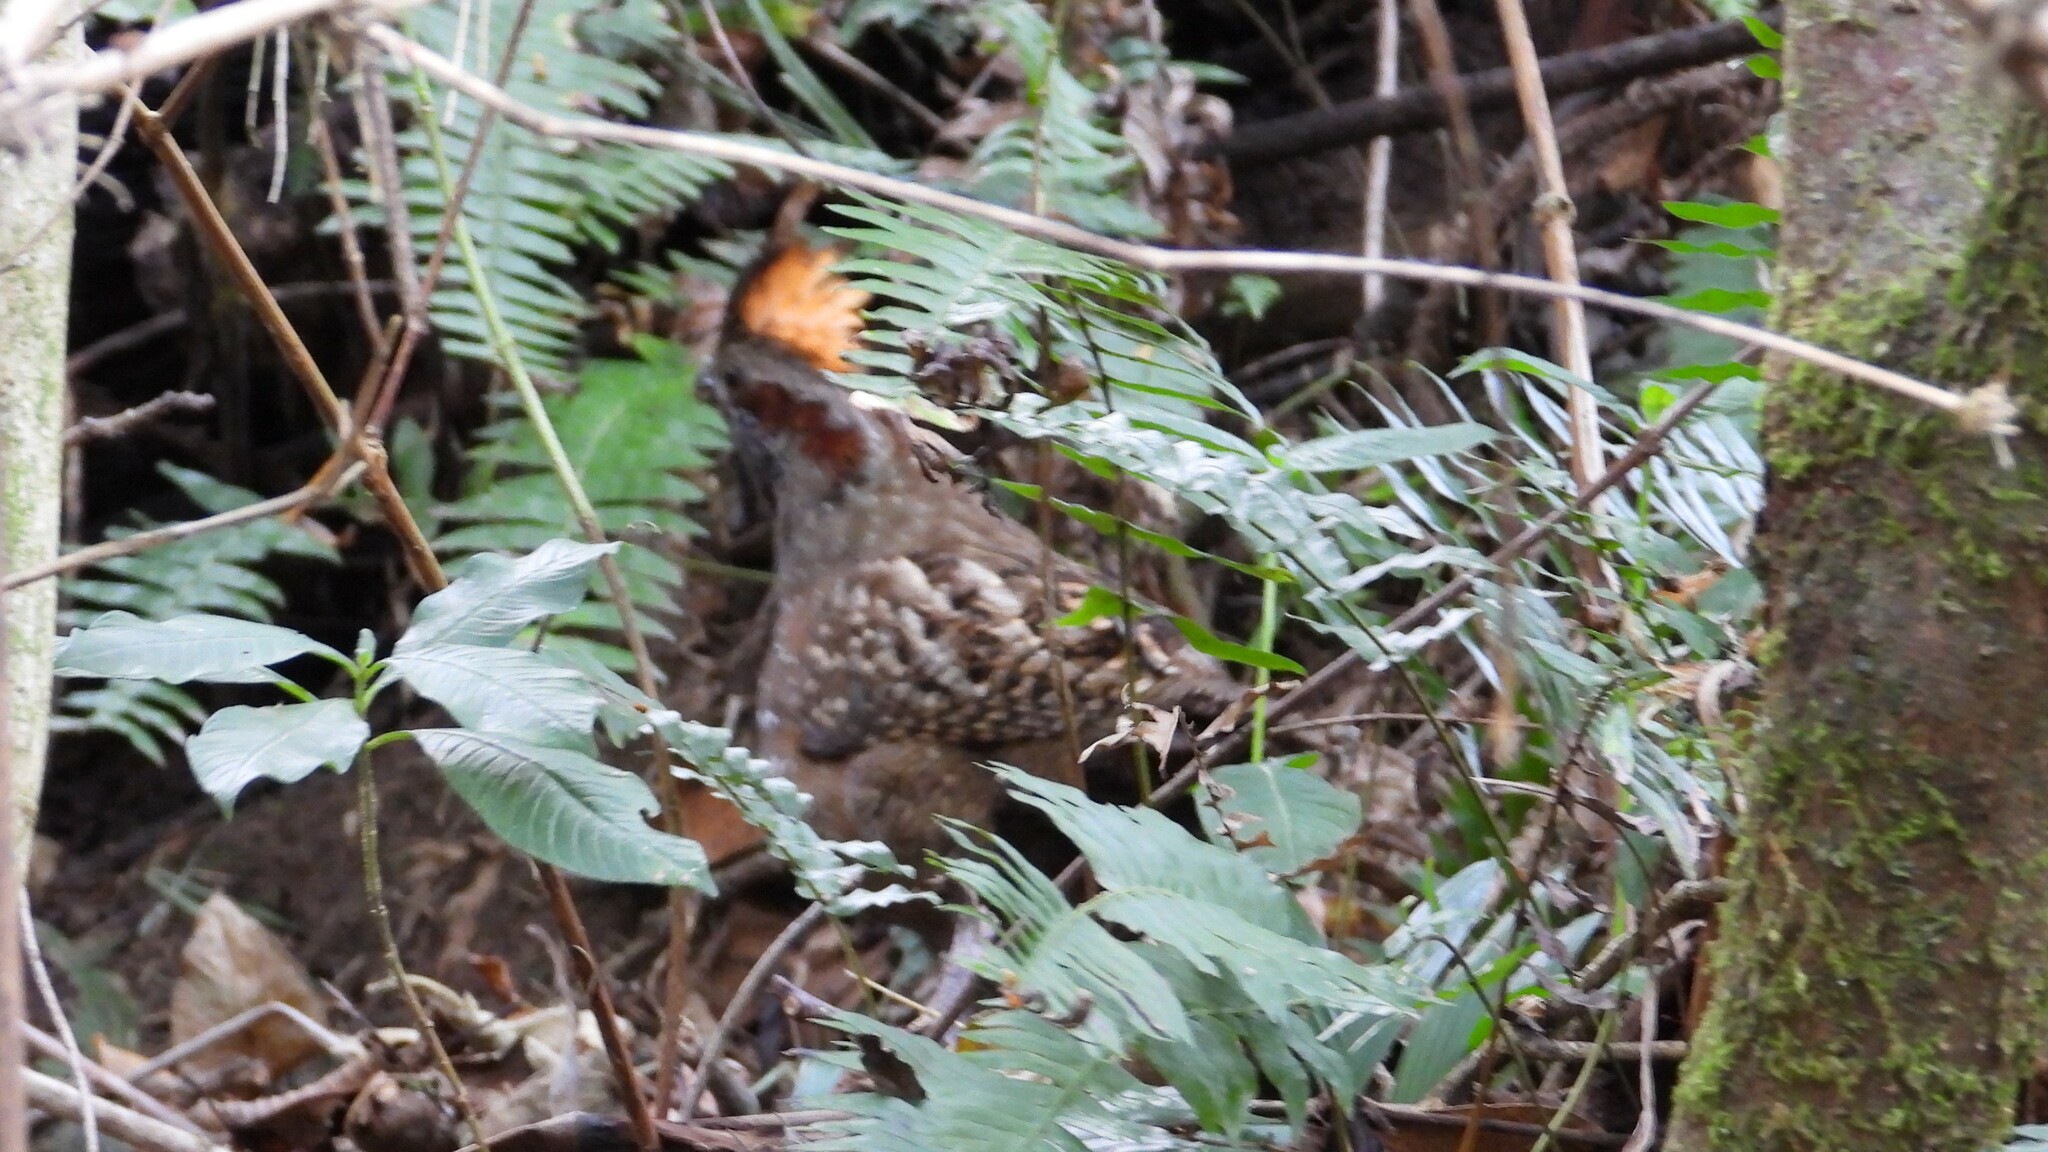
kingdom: Animalia
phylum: Chordata
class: Aves
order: Galliformes
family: Odontophoridae
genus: Odontophorus
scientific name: Odontophorus guttatus
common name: Spotted wood-quail
